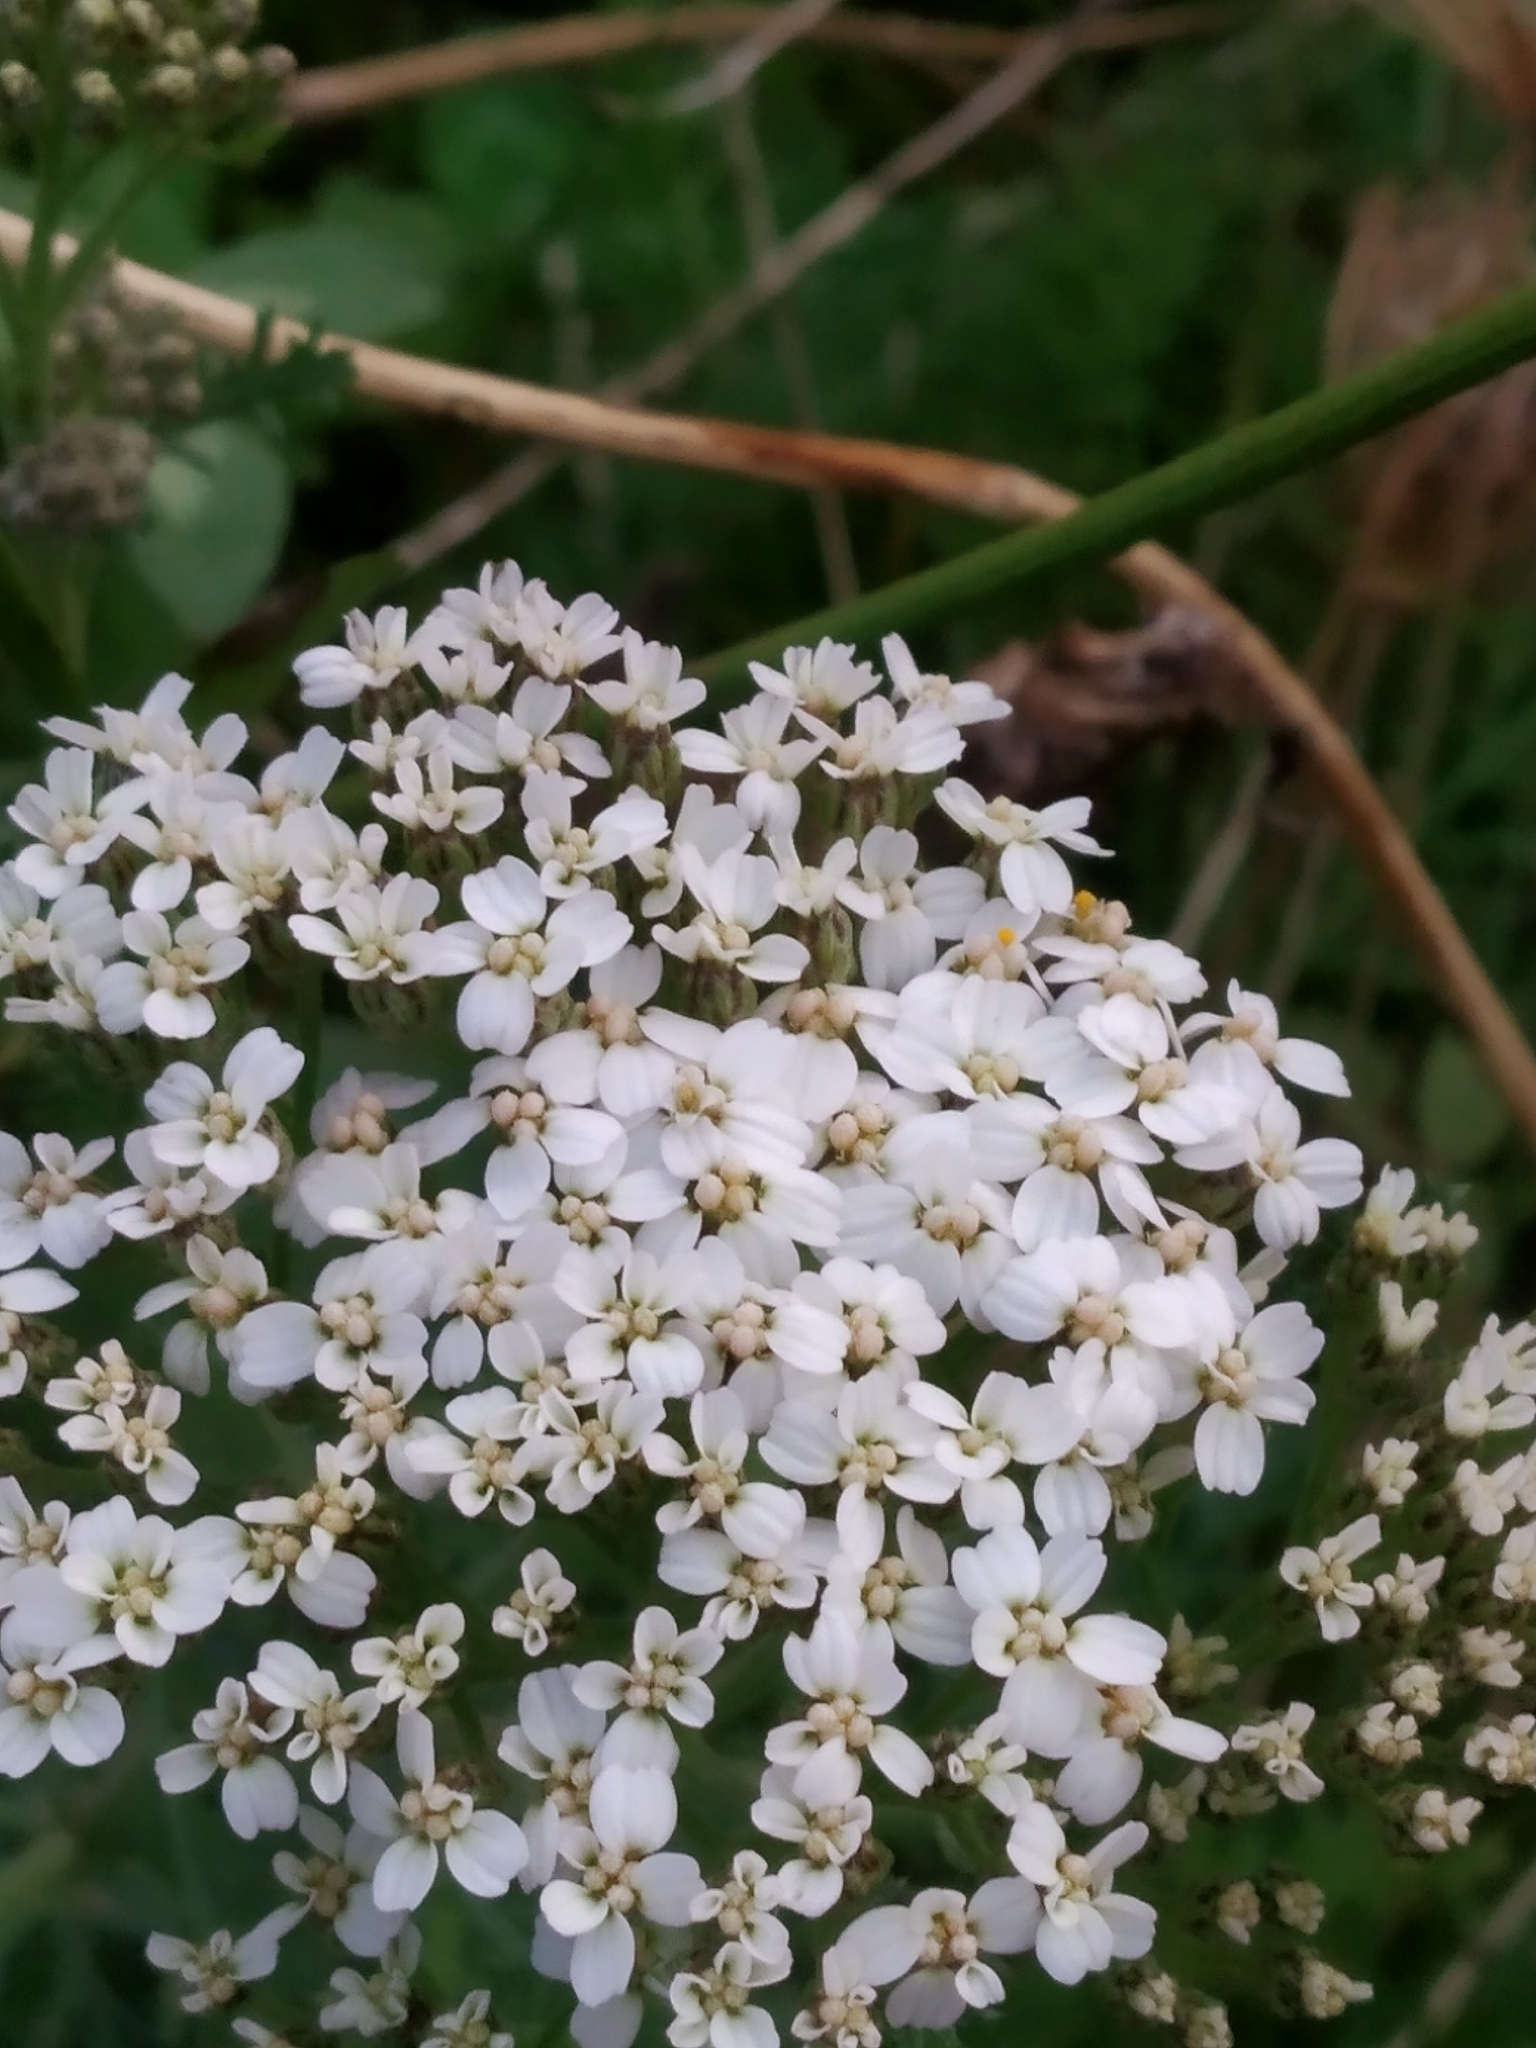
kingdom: Plantae
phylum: Tracheophyta
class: Magnoliopsida
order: Asterales
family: Asteraceae
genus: Achillea
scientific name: Achillea millefolium
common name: Yarrow
